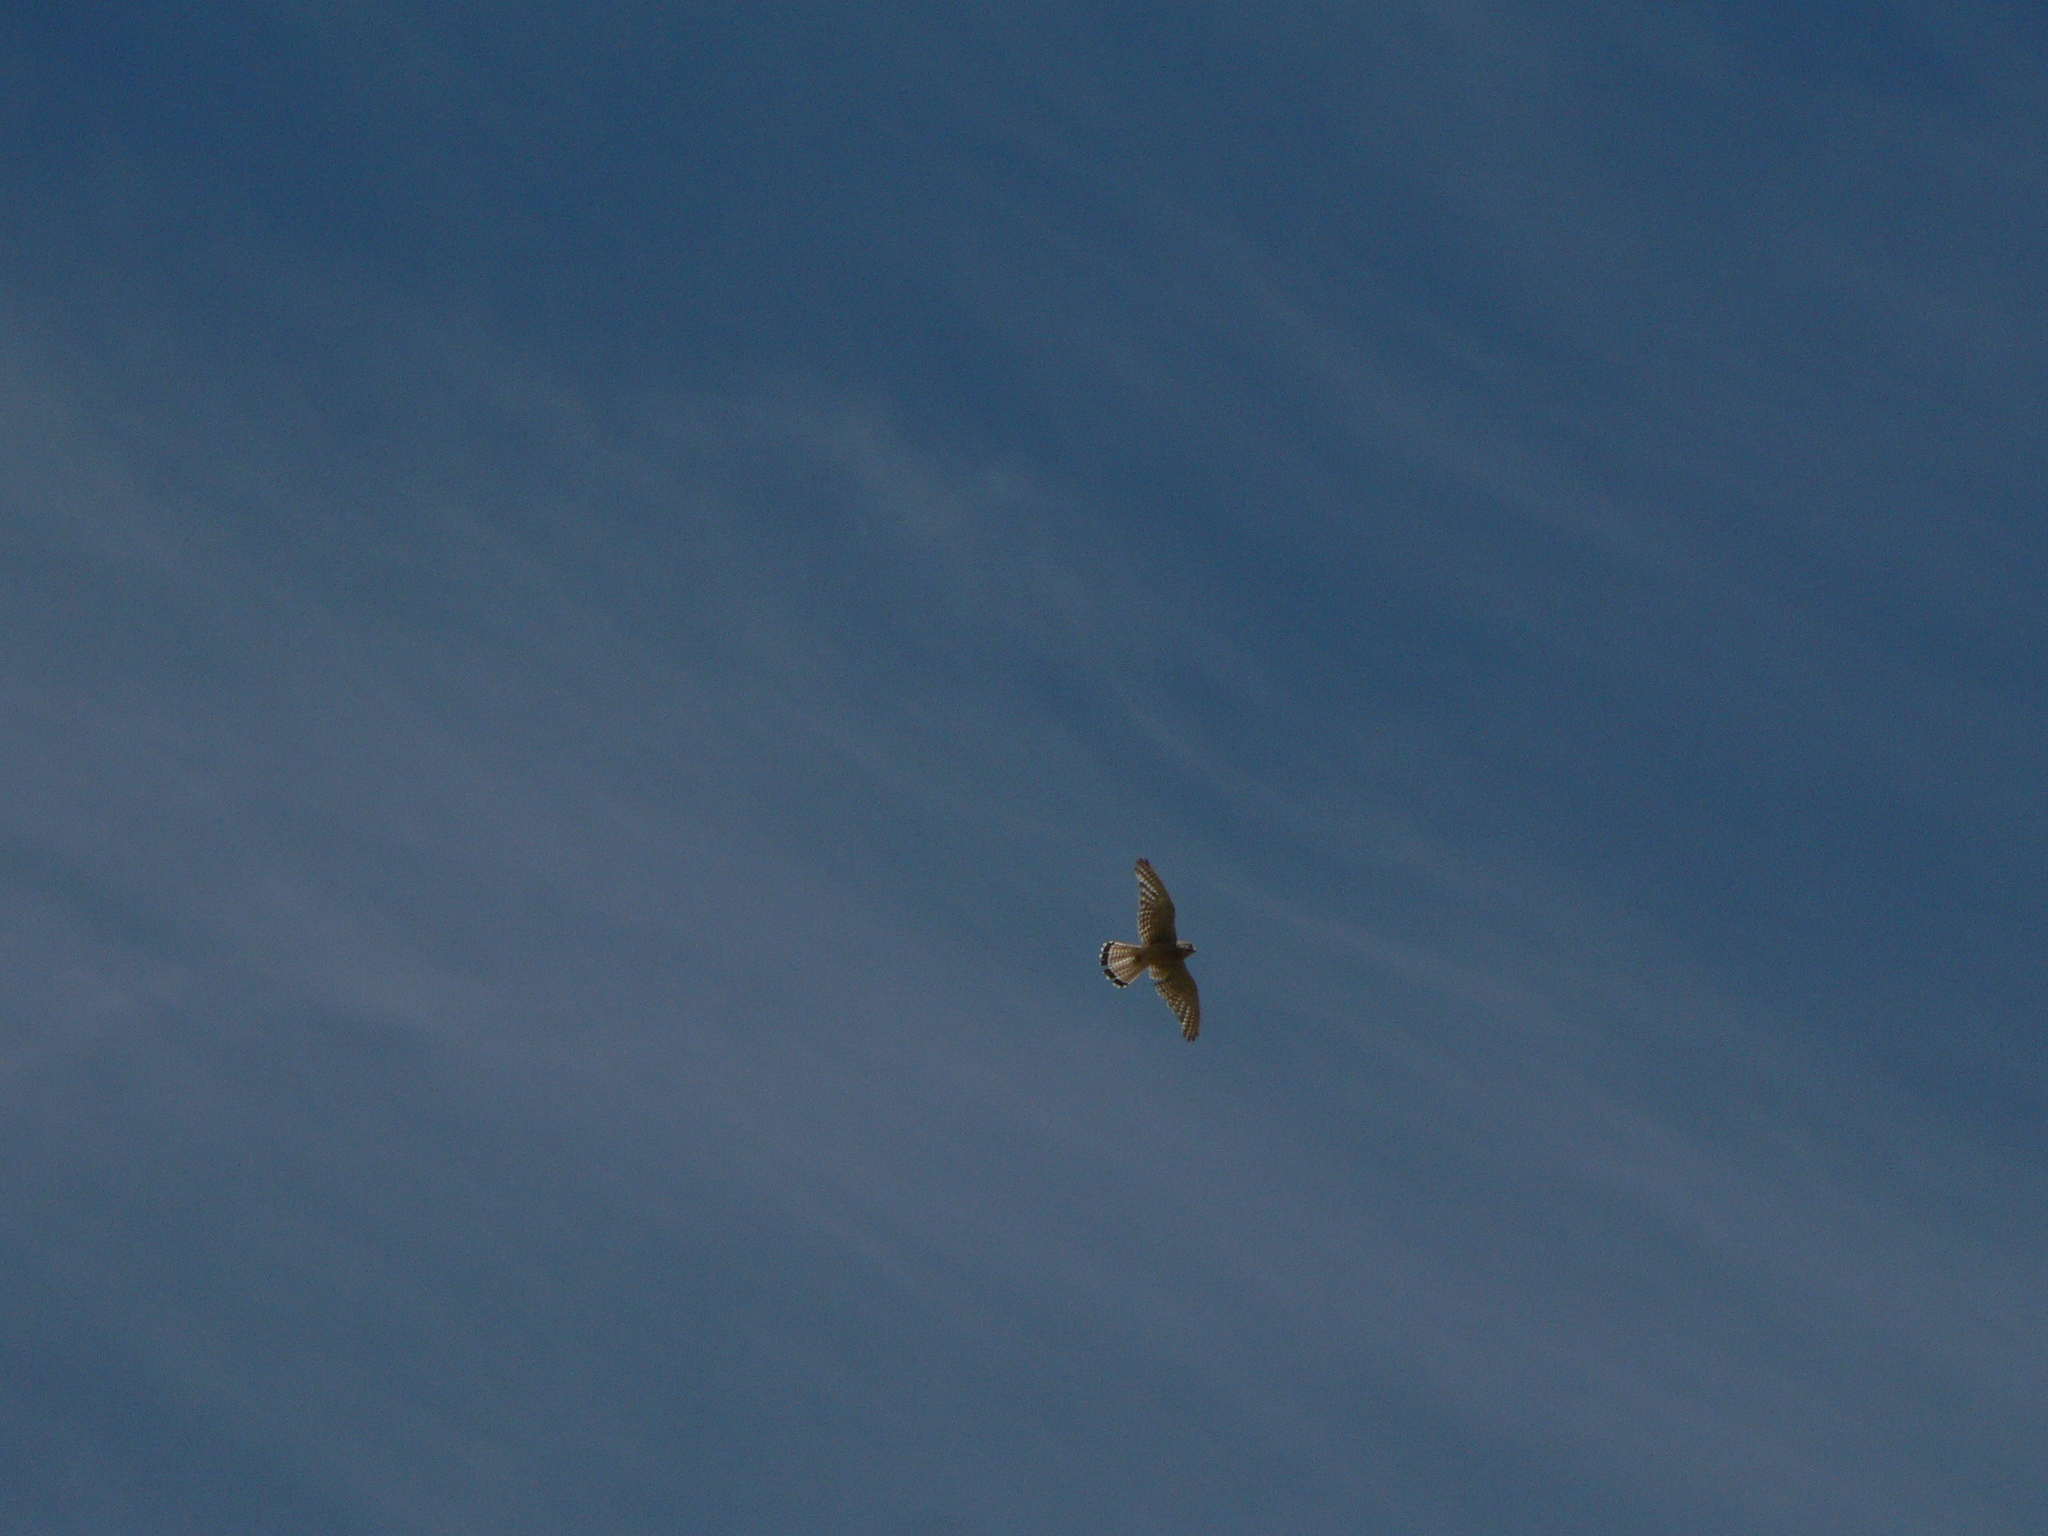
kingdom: Animalia
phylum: Chordata
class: Aves
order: Falconiformes
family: Falconidae
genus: Falco
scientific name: Falco tinnunculus
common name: Common kestrel
